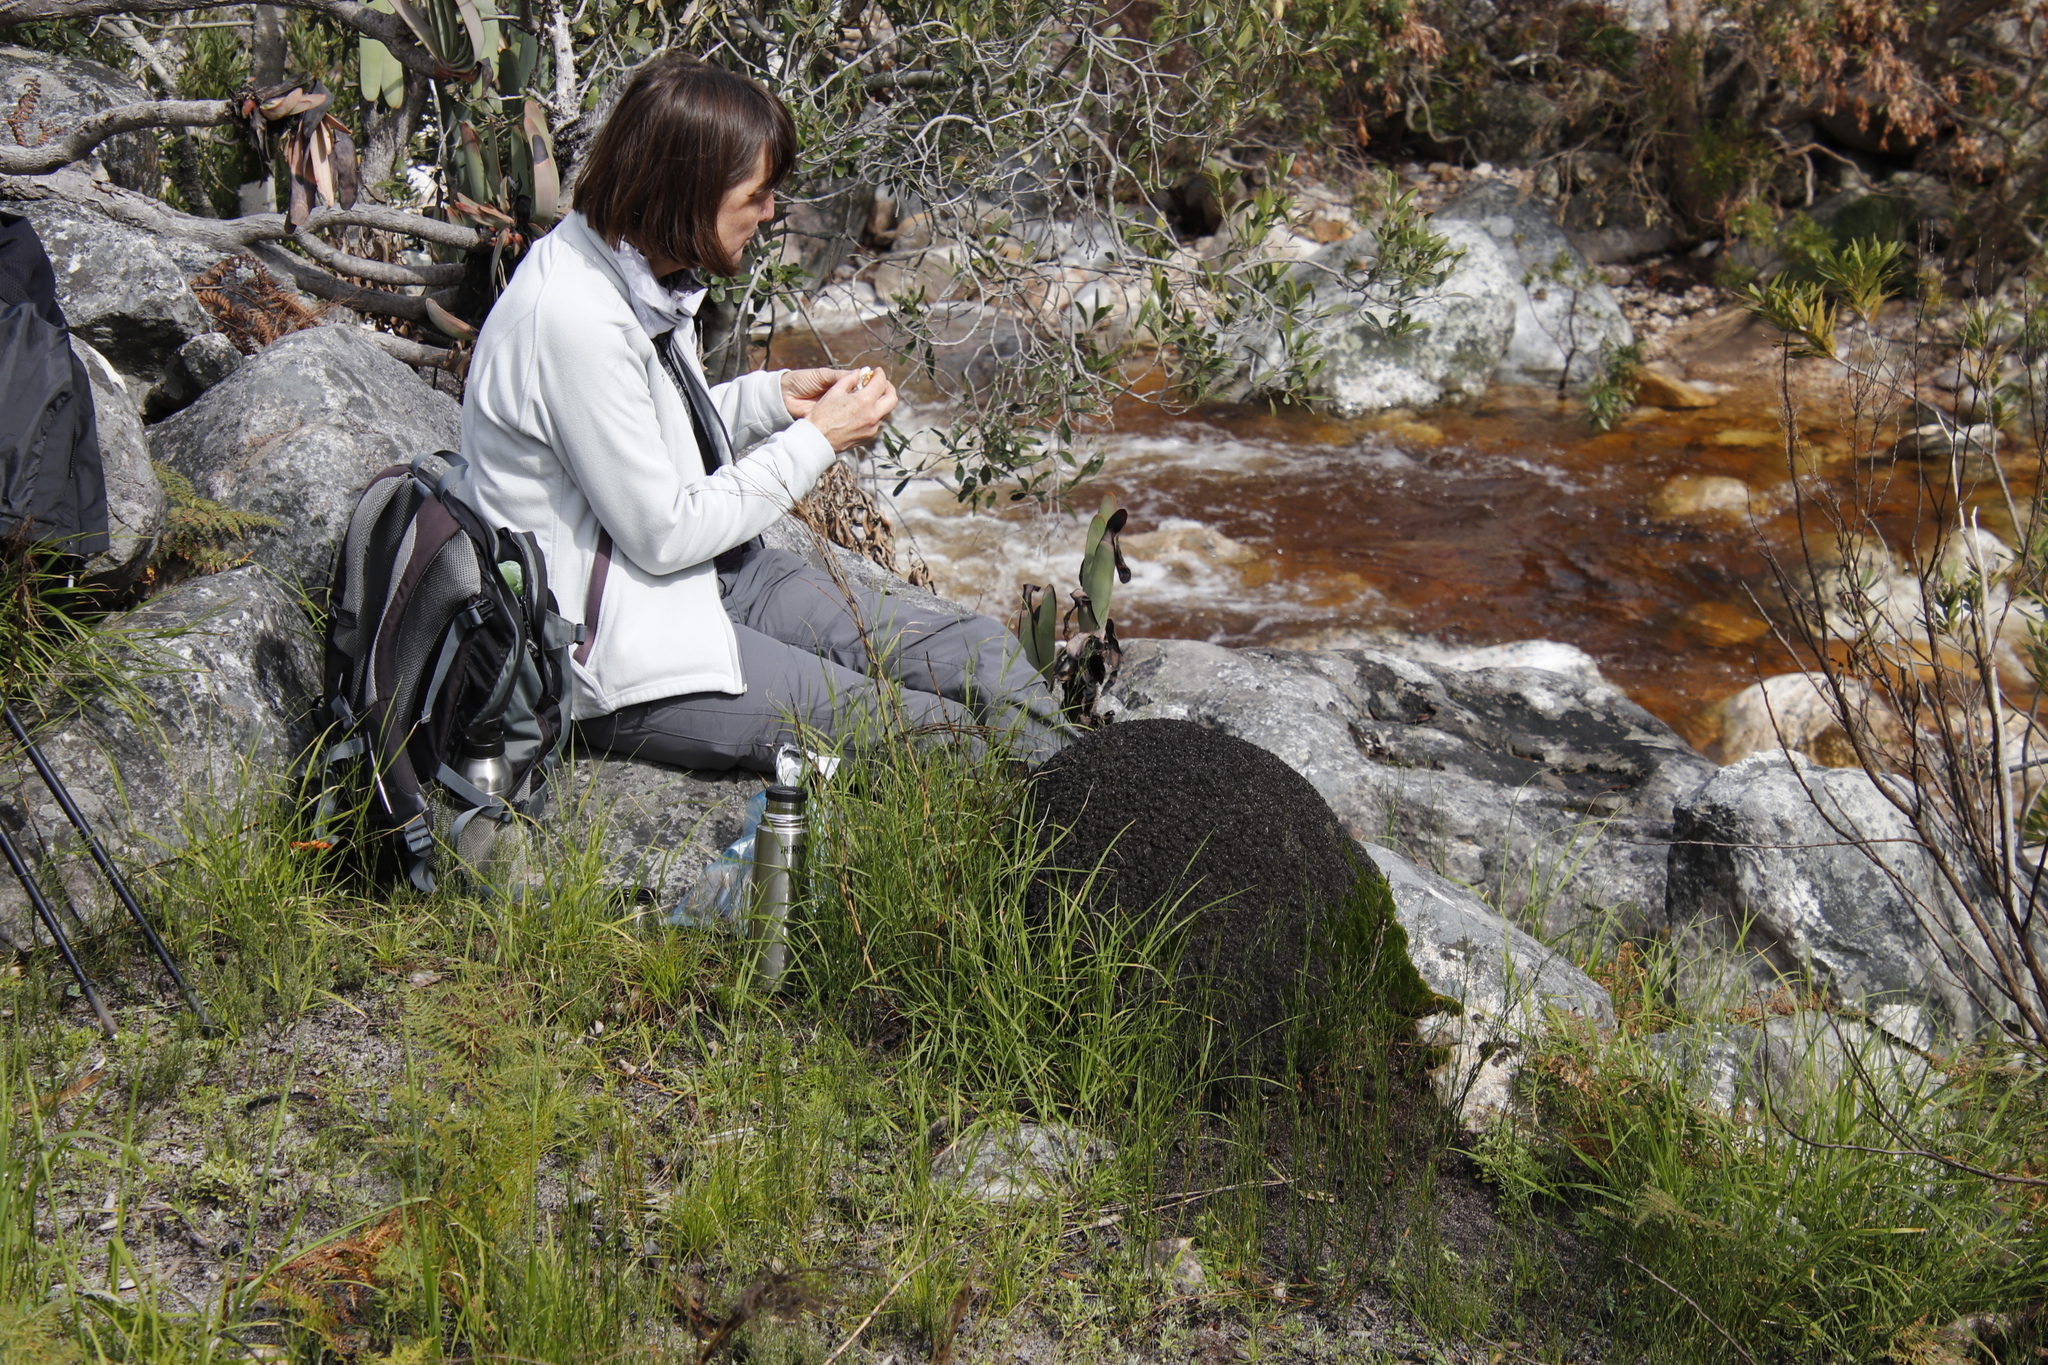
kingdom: Animalia
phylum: Arthropoda
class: Insecta
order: Blattodea
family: Termitidae
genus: Amitermes
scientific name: Amitermes hastatus
